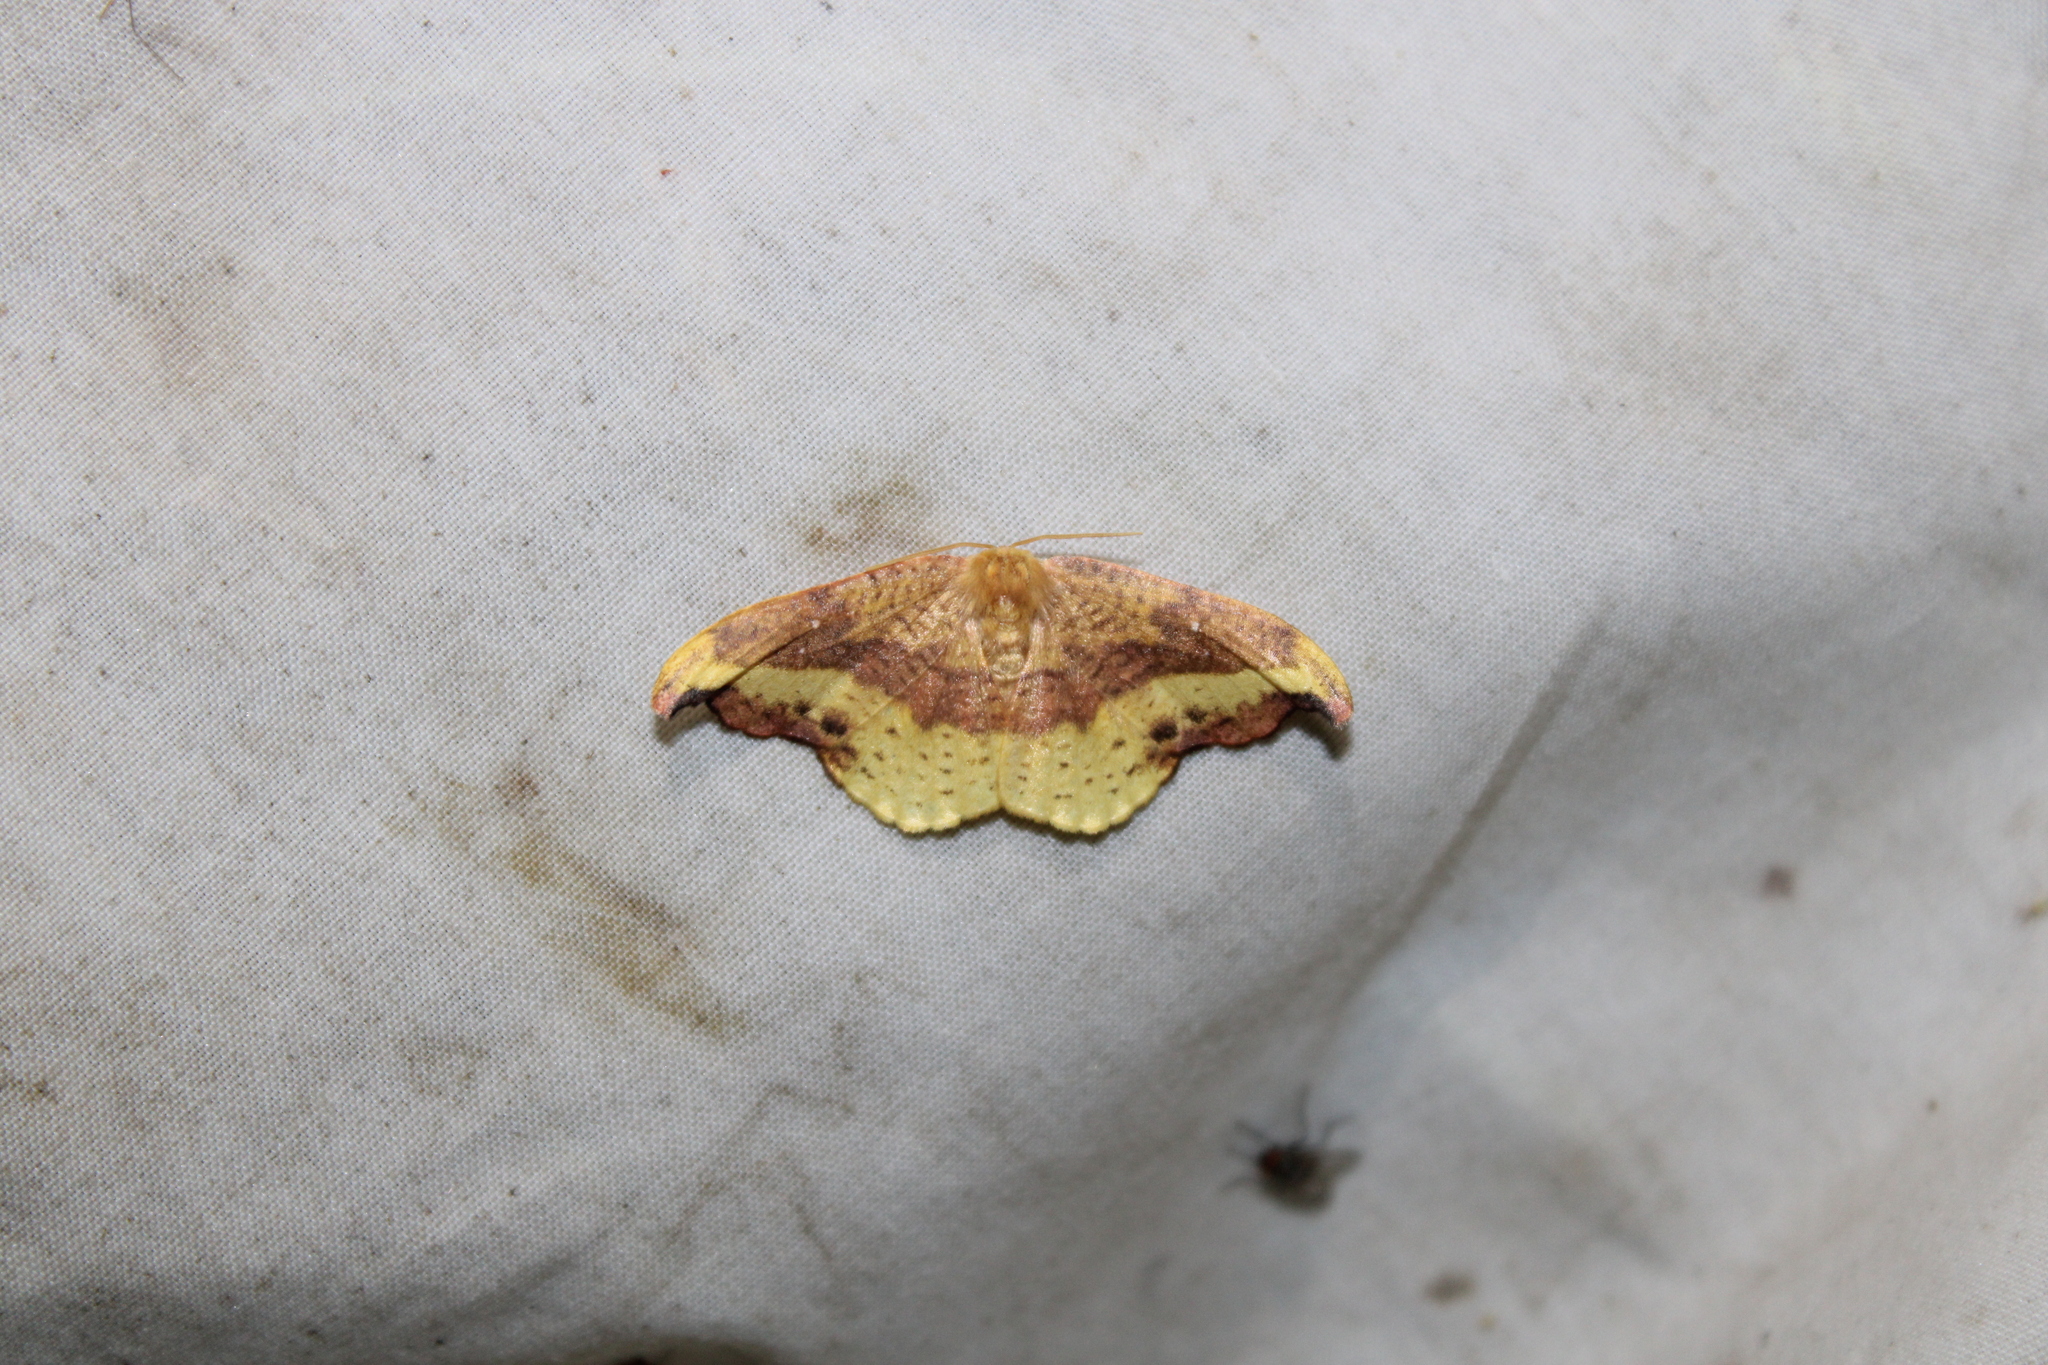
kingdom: Animalia
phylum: Arthropoda
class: Insecta
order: Lepidoptera
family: Drepanidae
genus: Oreta
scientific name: Oreta rosea
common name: Rose hooktip
